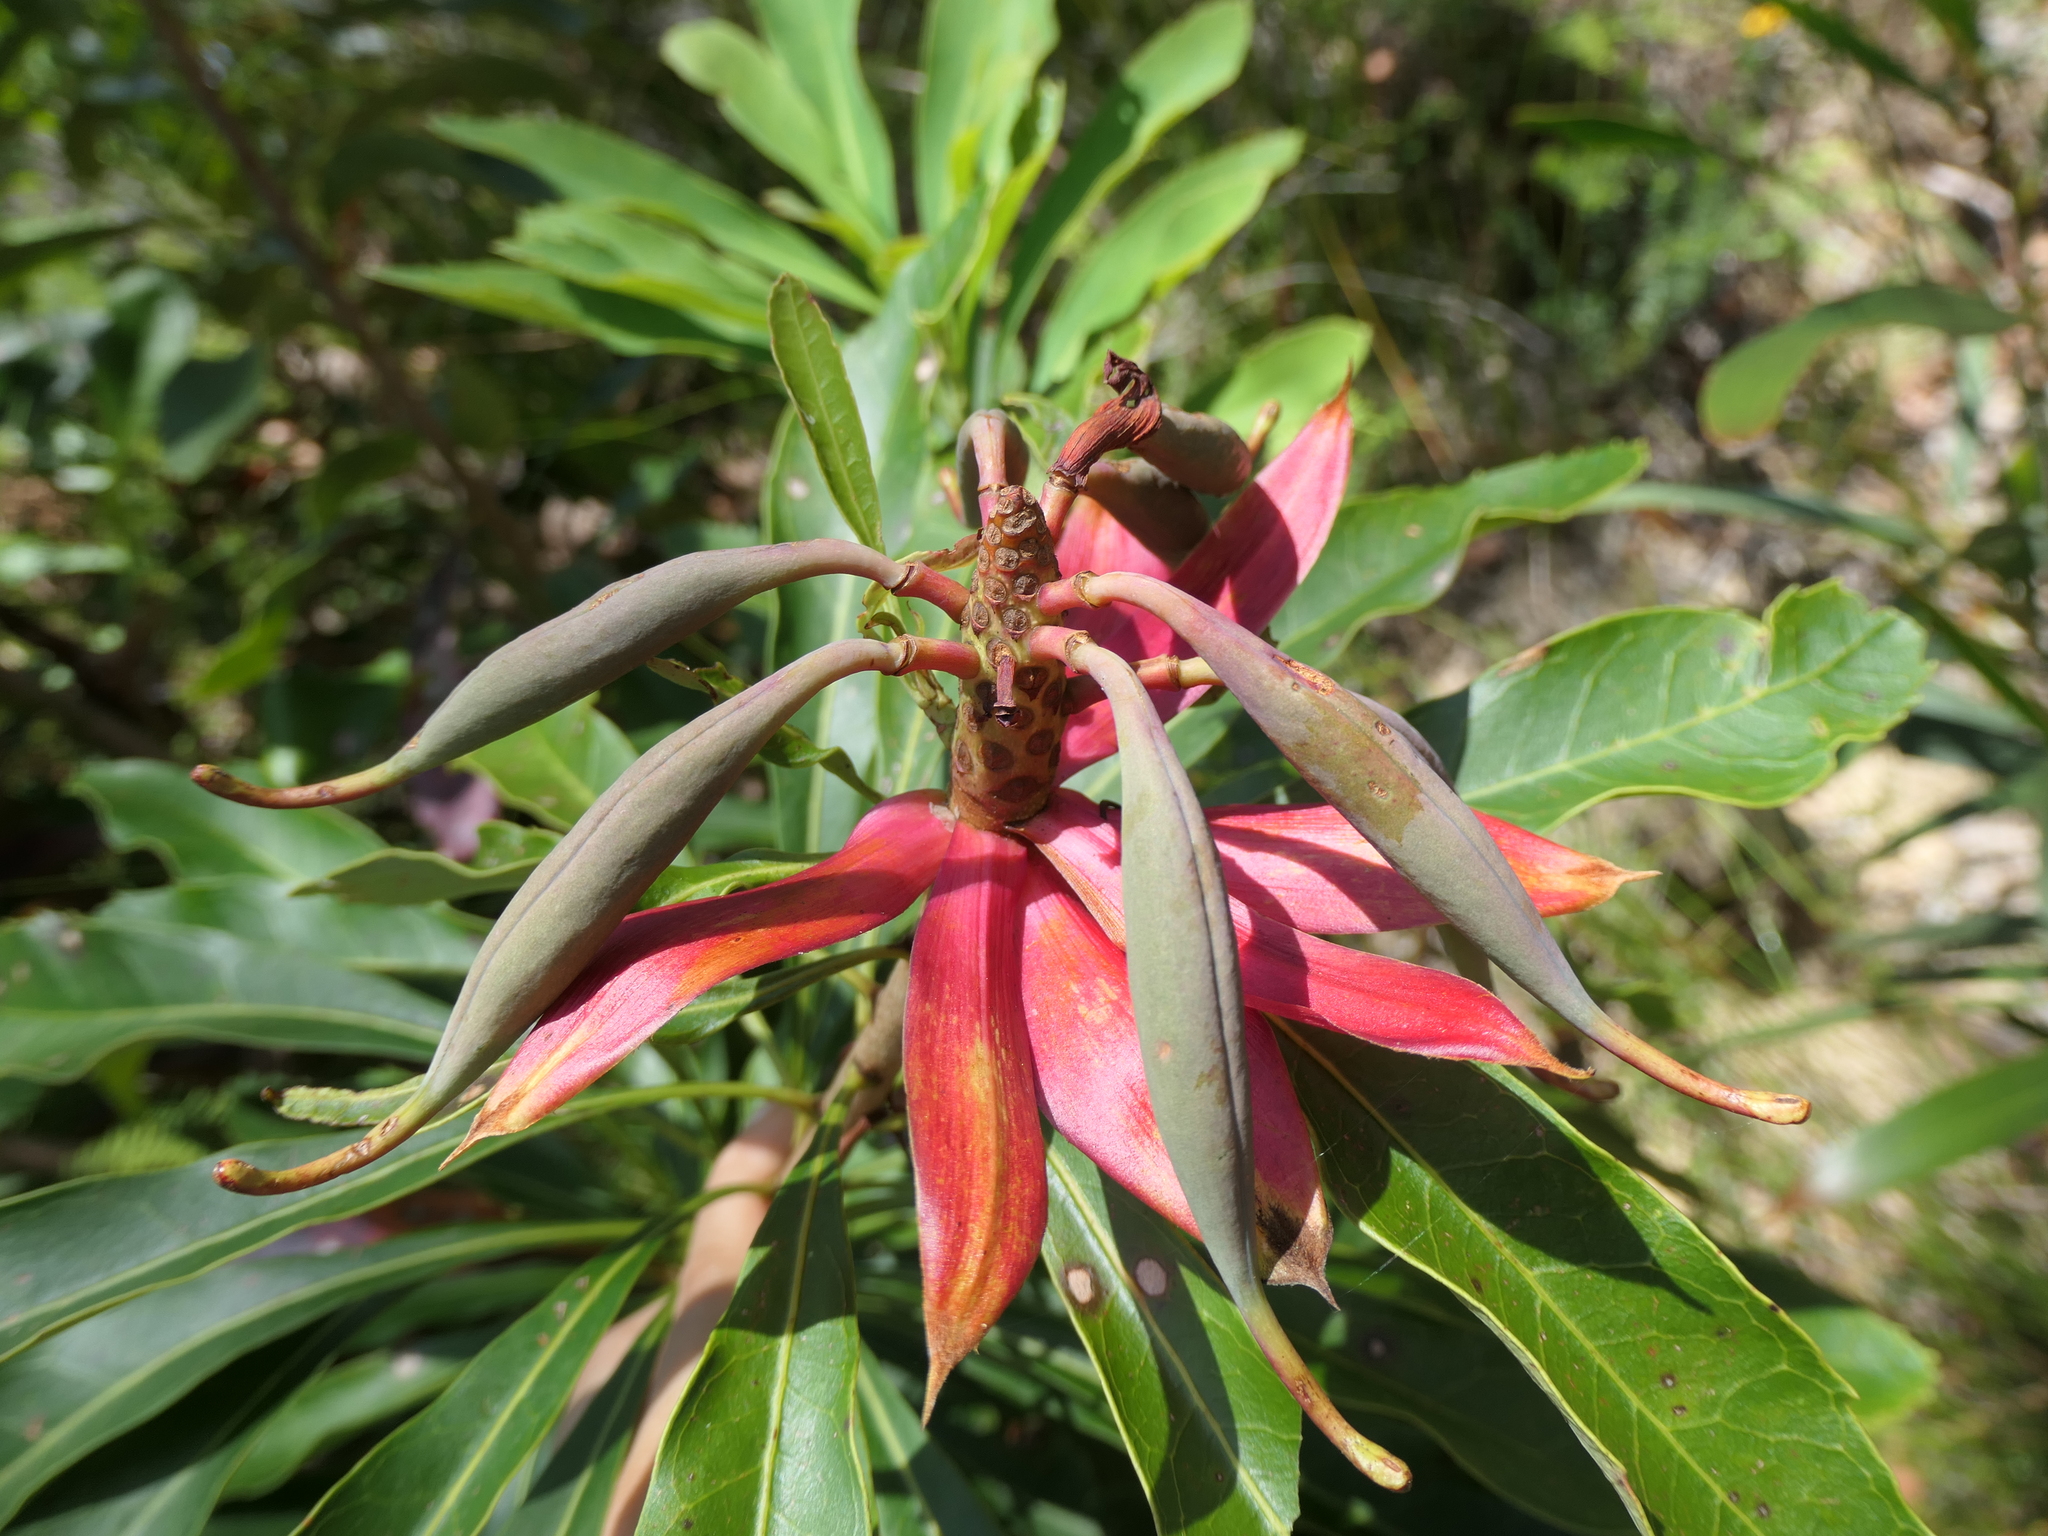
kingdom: Plantae
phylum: Tracheophyta
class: Magnoliopsida
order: Proteales
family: Proteaceae
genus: Telopea
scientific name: Telopea speciosissima
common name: New south wales waratah
